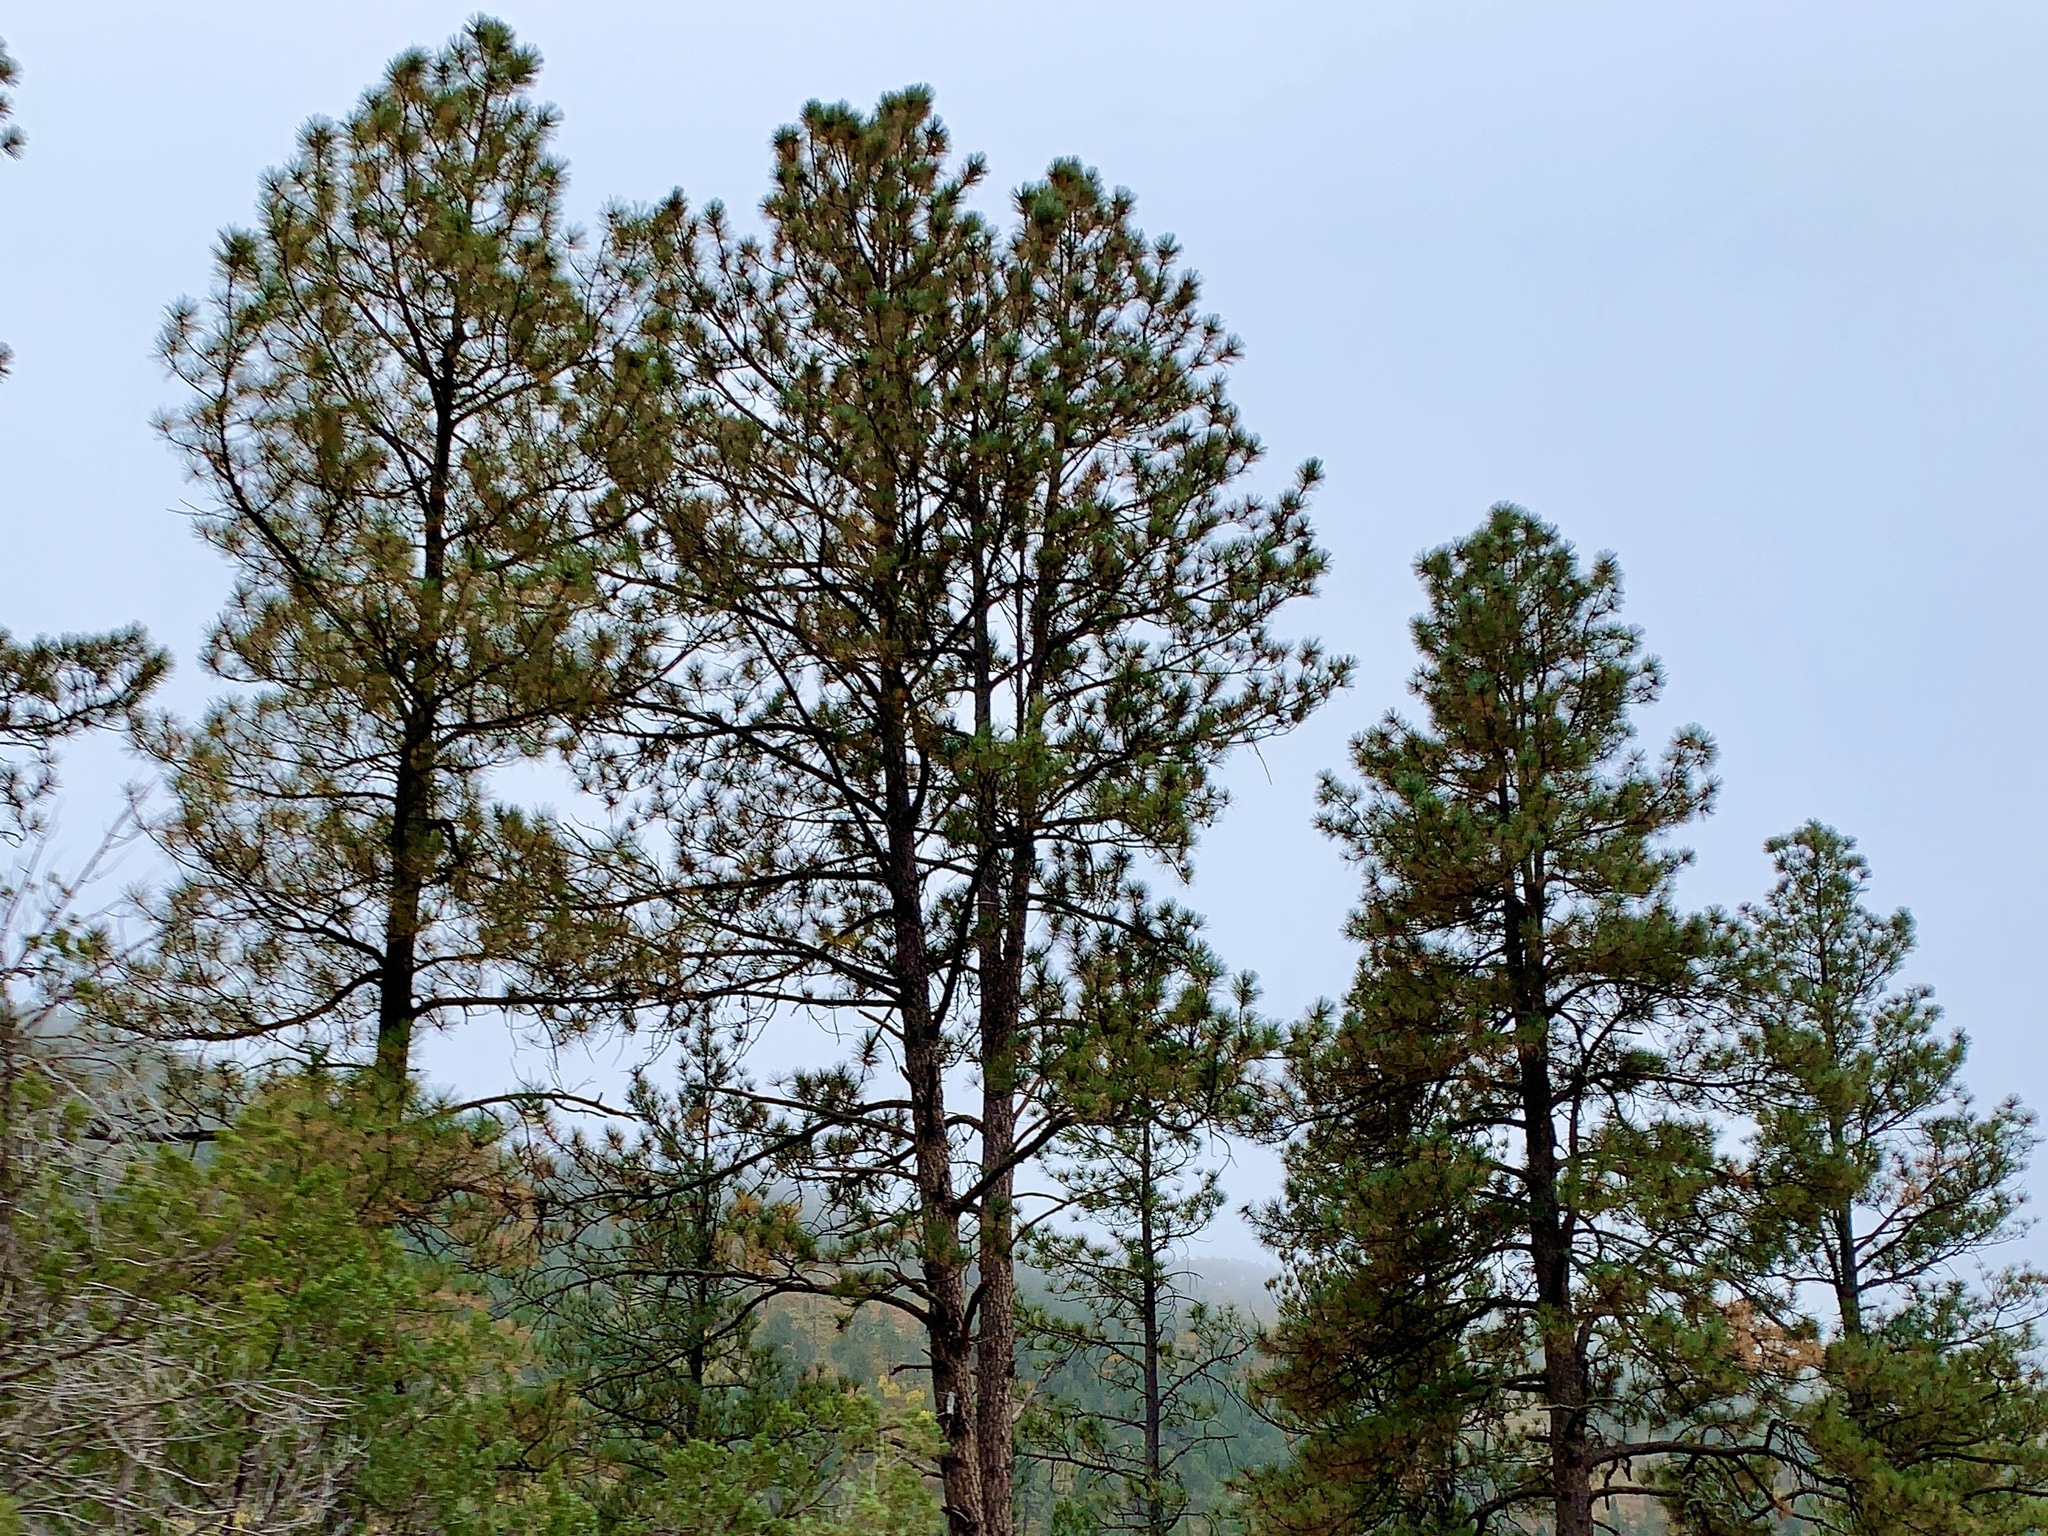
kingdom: Plantae
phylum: Tracheophyta
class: Pinopsida
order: Pinales
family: Pinaceae
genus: Pinus
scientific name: Pinus ponderosa
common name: Western yellow-pine
